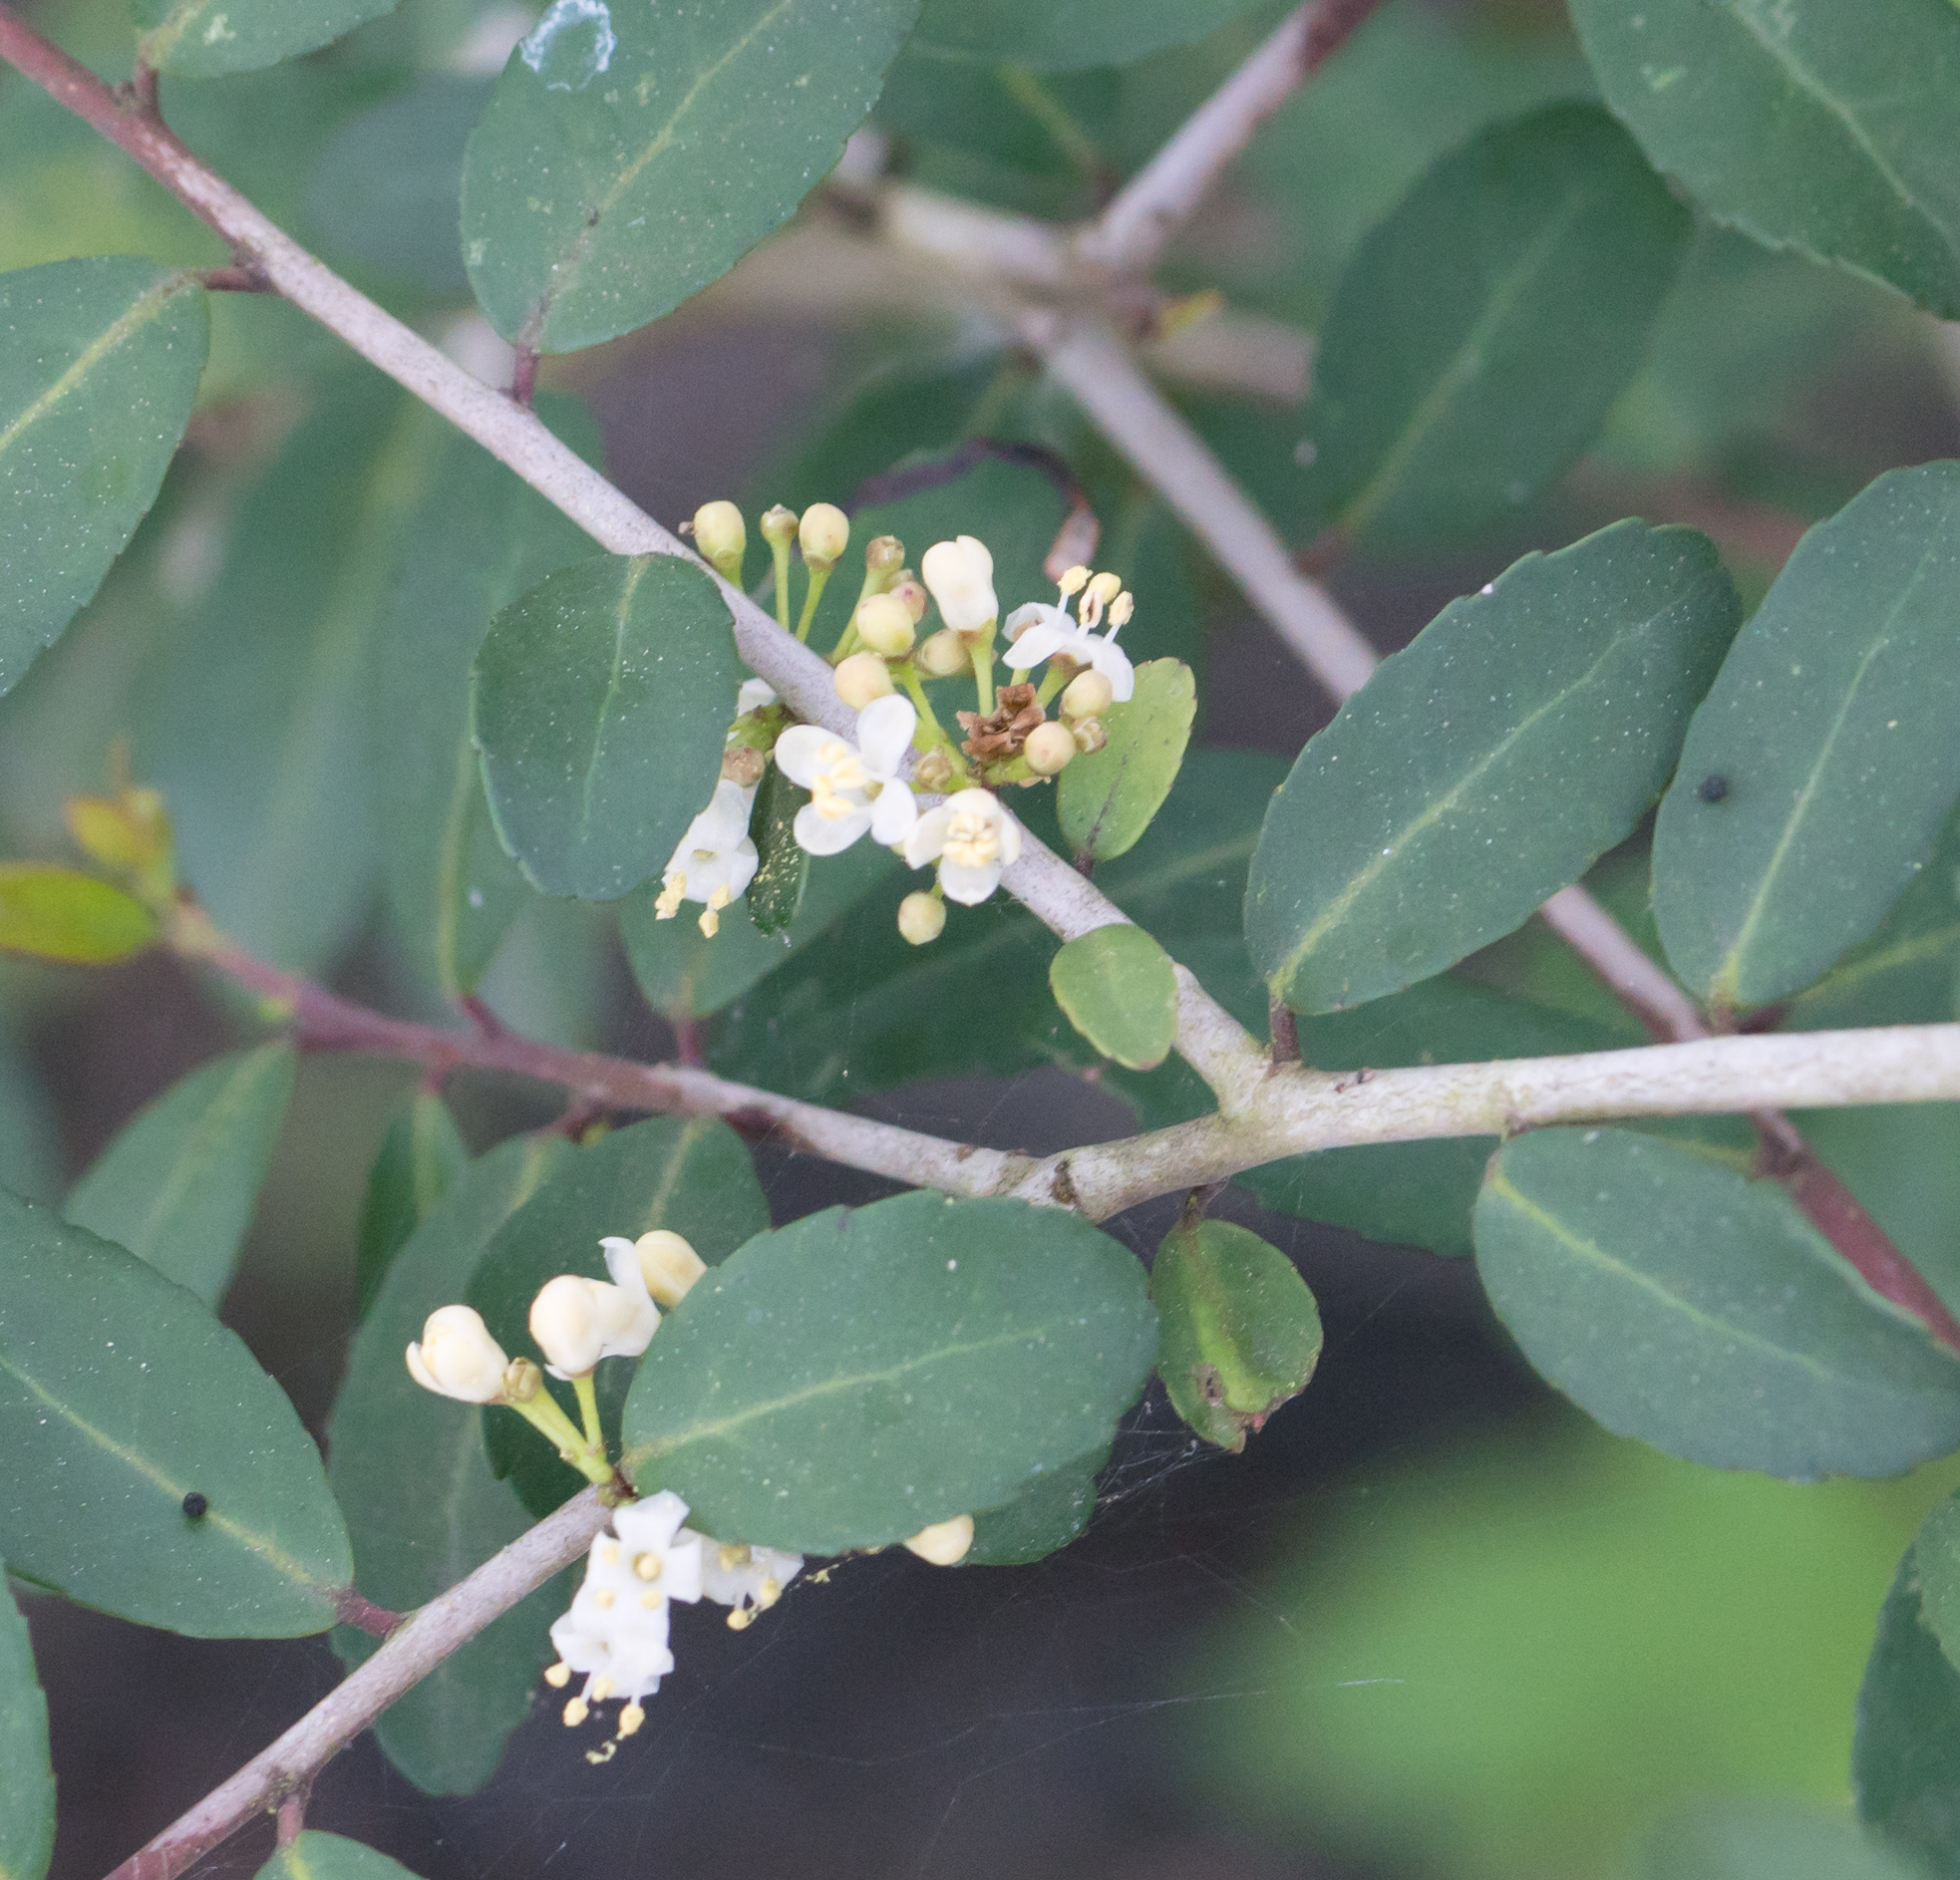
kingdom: Plantae
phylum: Tracheophyta
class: Magnoliopsida
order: Aquifoliales
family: Aquifoliaceae
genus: Ilex
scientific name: Ilex vomitoria
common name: Yaupon holly
